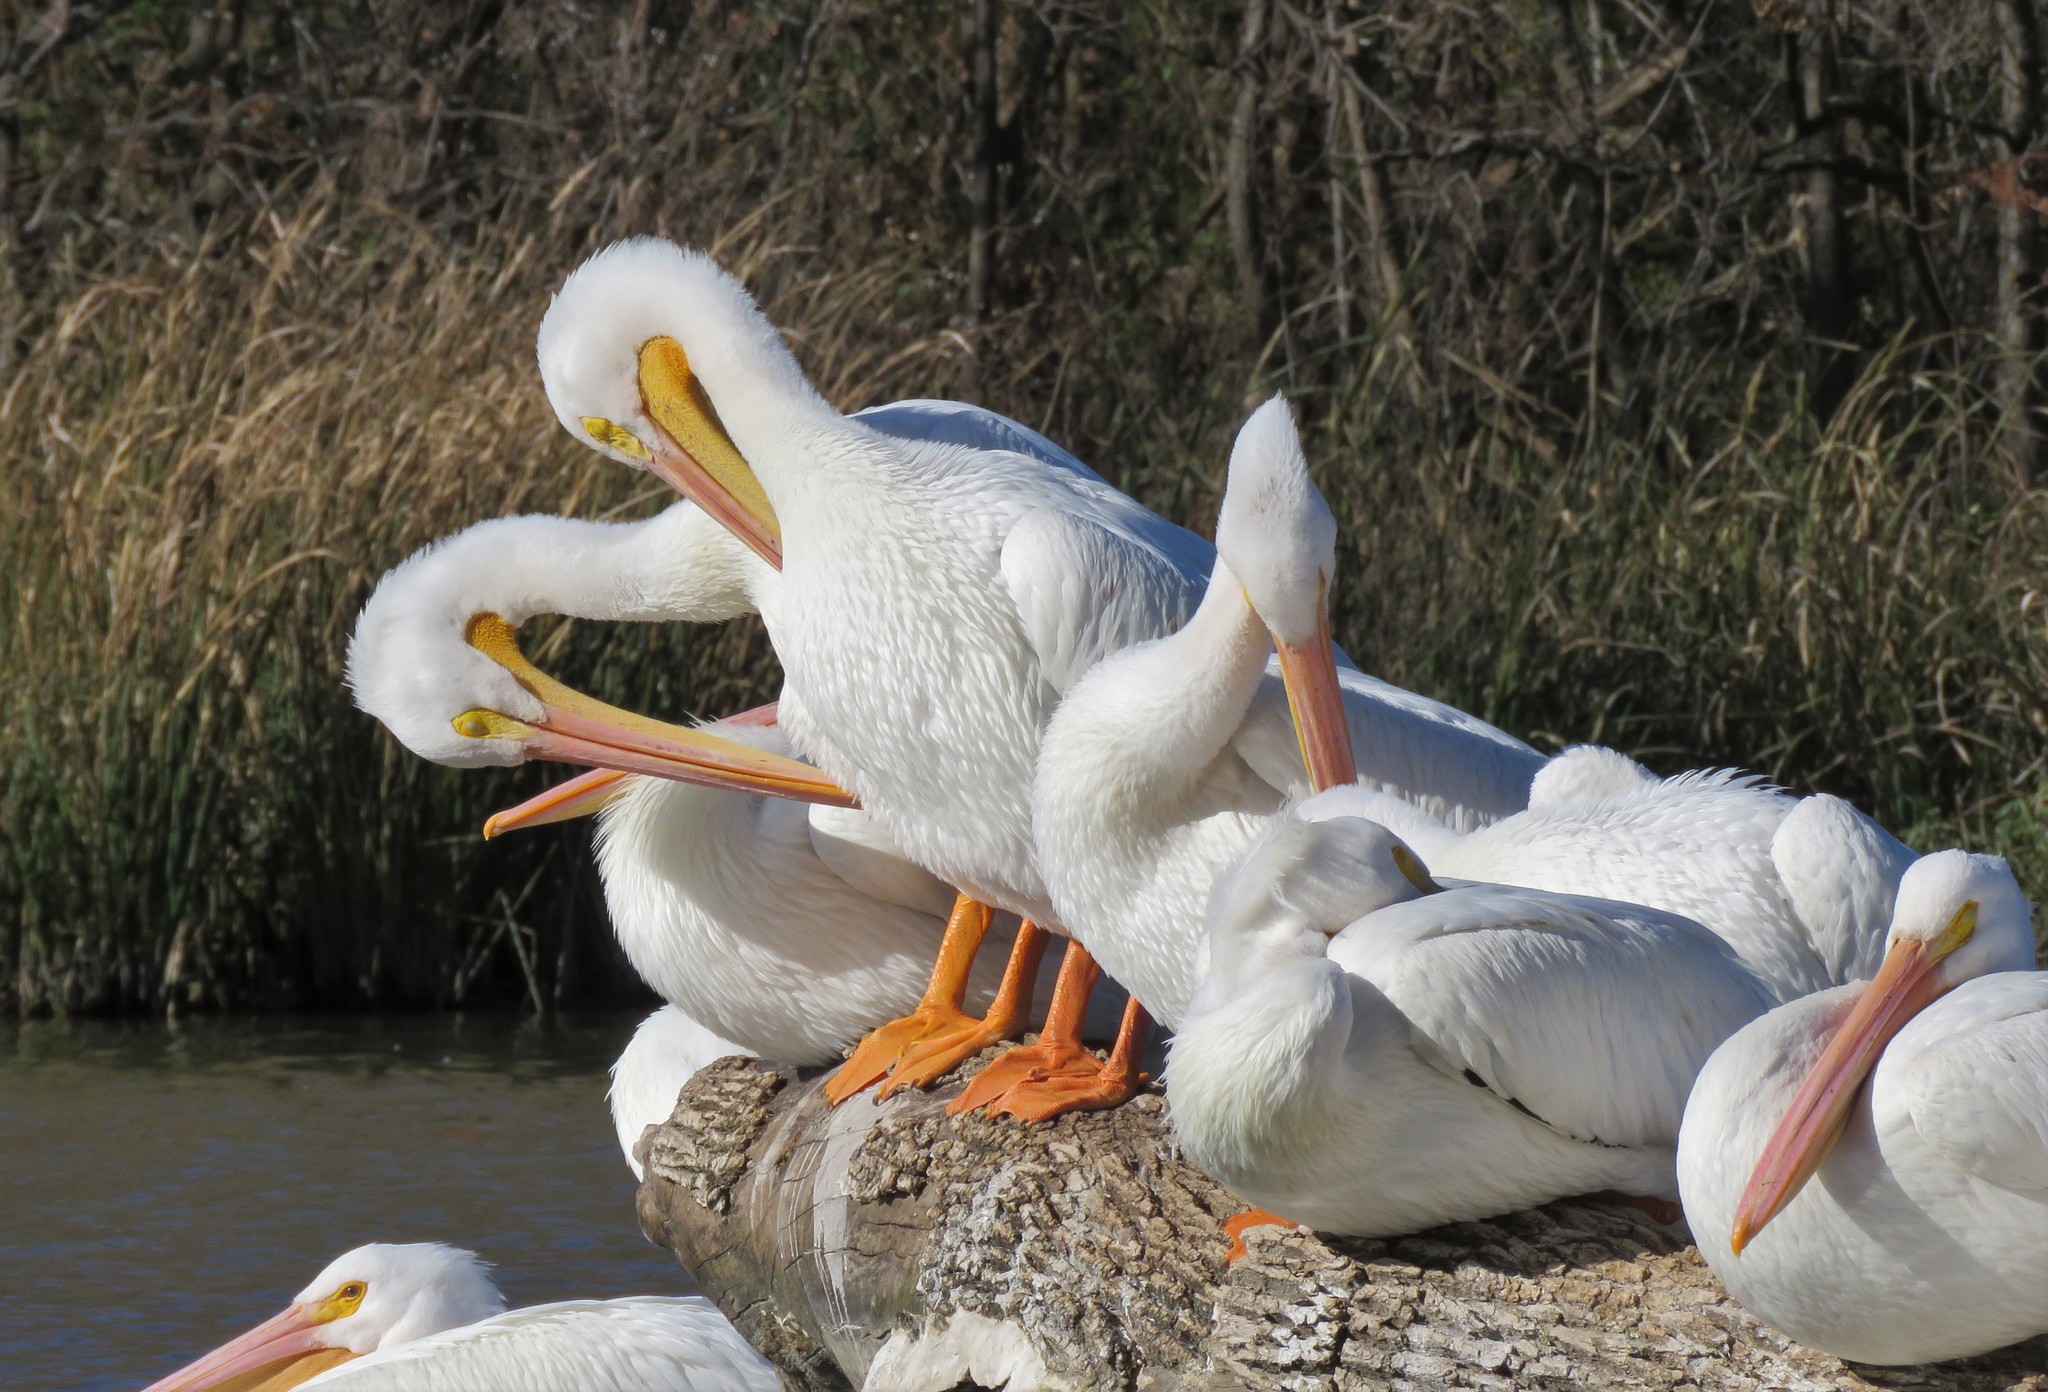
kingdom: Animalia
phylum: Chordata
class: Aves
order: Pelecaniformes
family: Pelecanidae
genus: Pelecanus
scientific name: Pelecanus erythrorhynchos
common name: American white pelican
